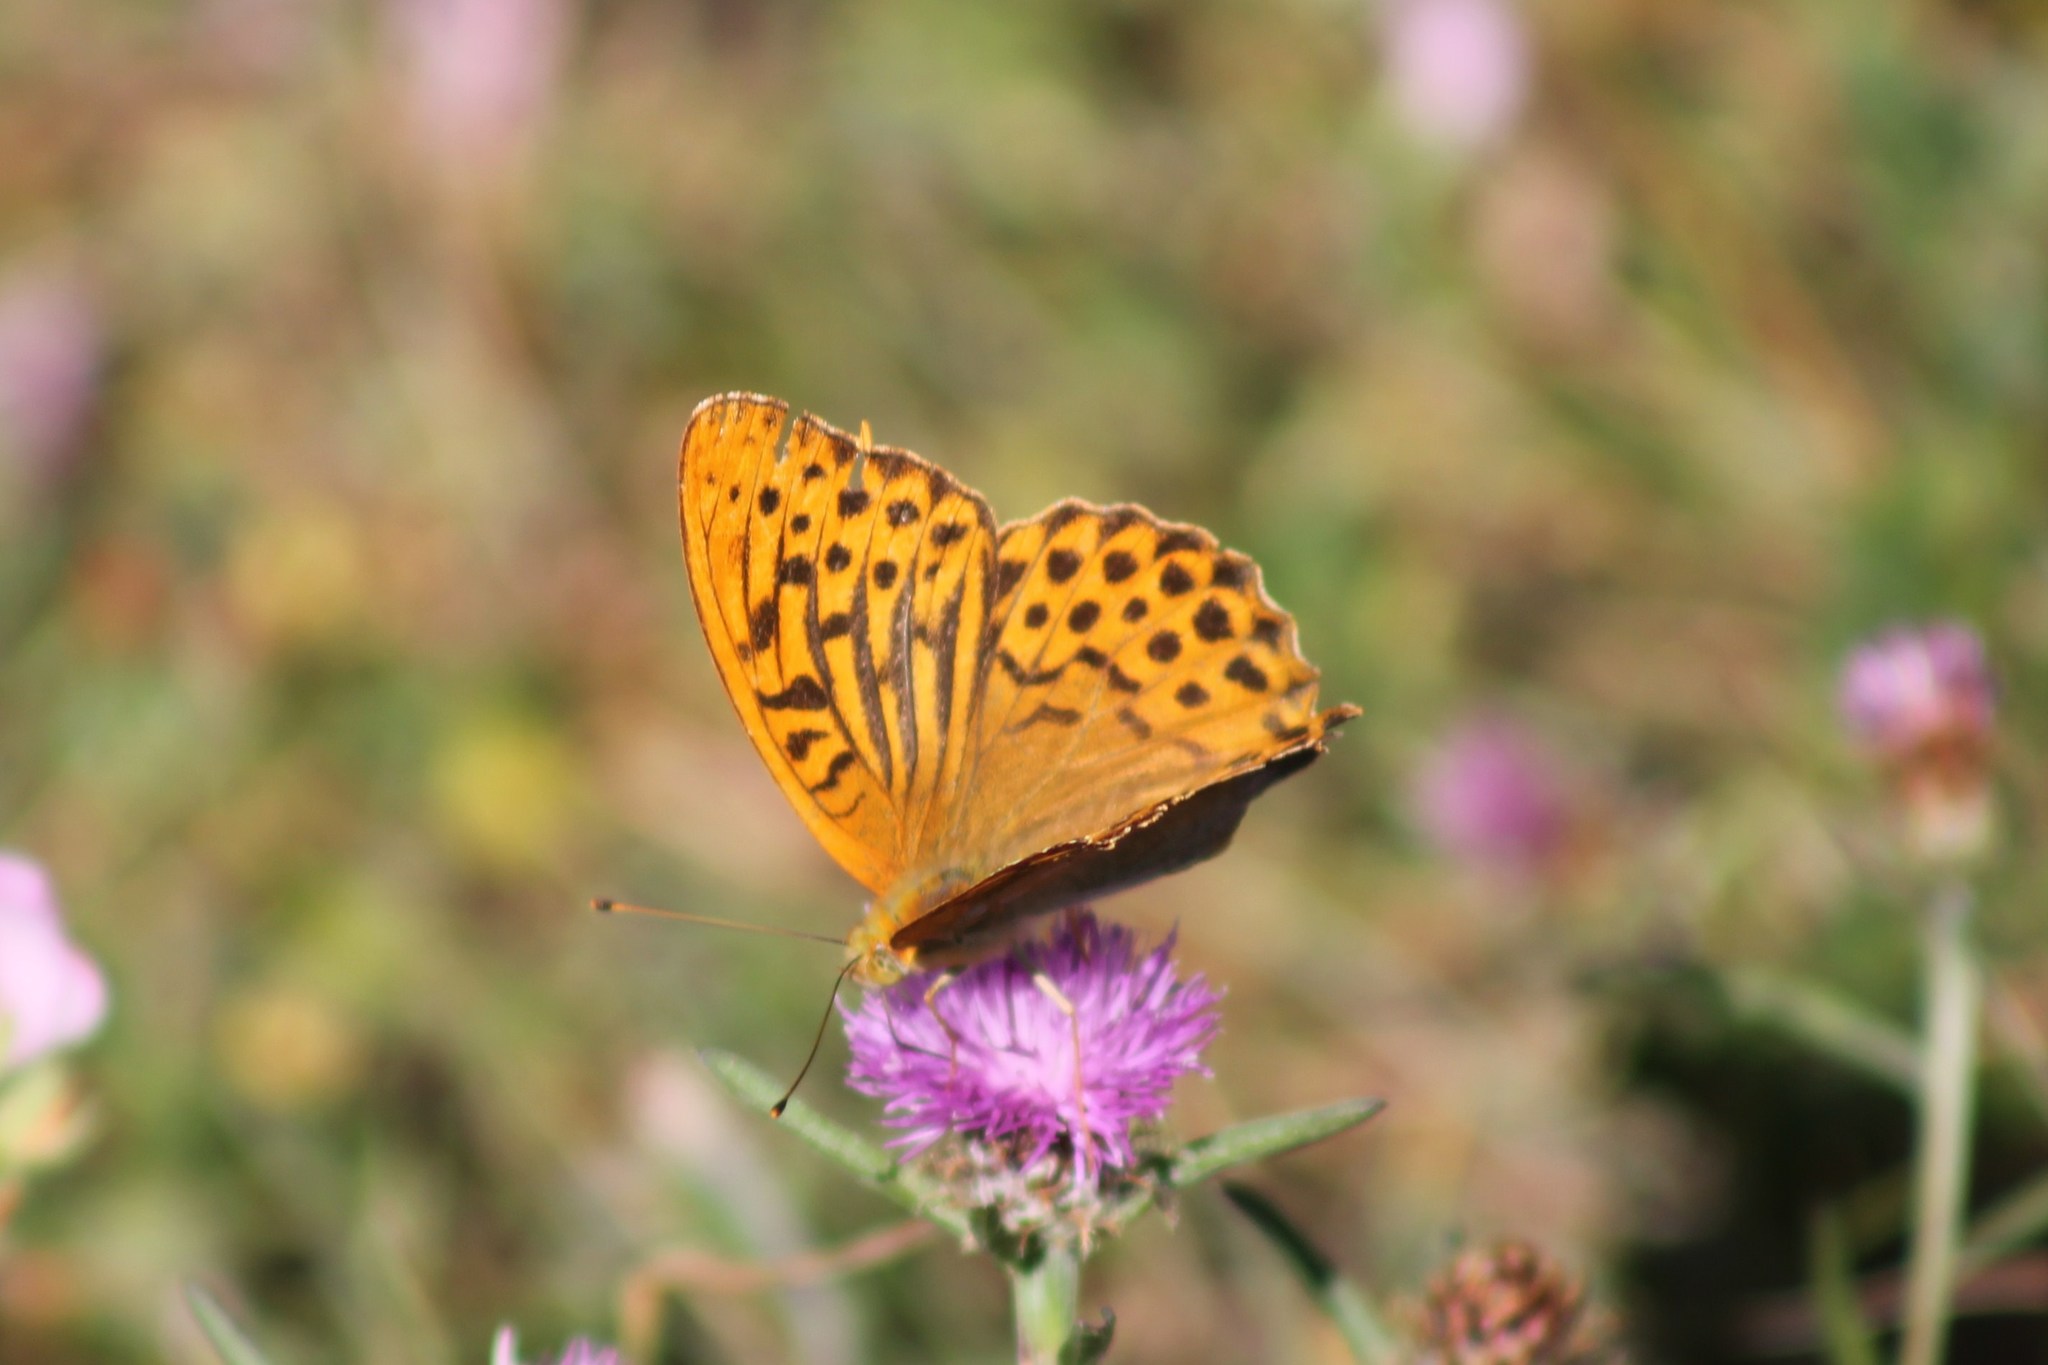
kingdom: Animalia
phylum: Arthropoda
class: Insecta
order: Lepidoptera
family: Nymphalidae
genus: Argynnis
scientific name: Argynnis paphia
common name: Silver-washed fritillary
